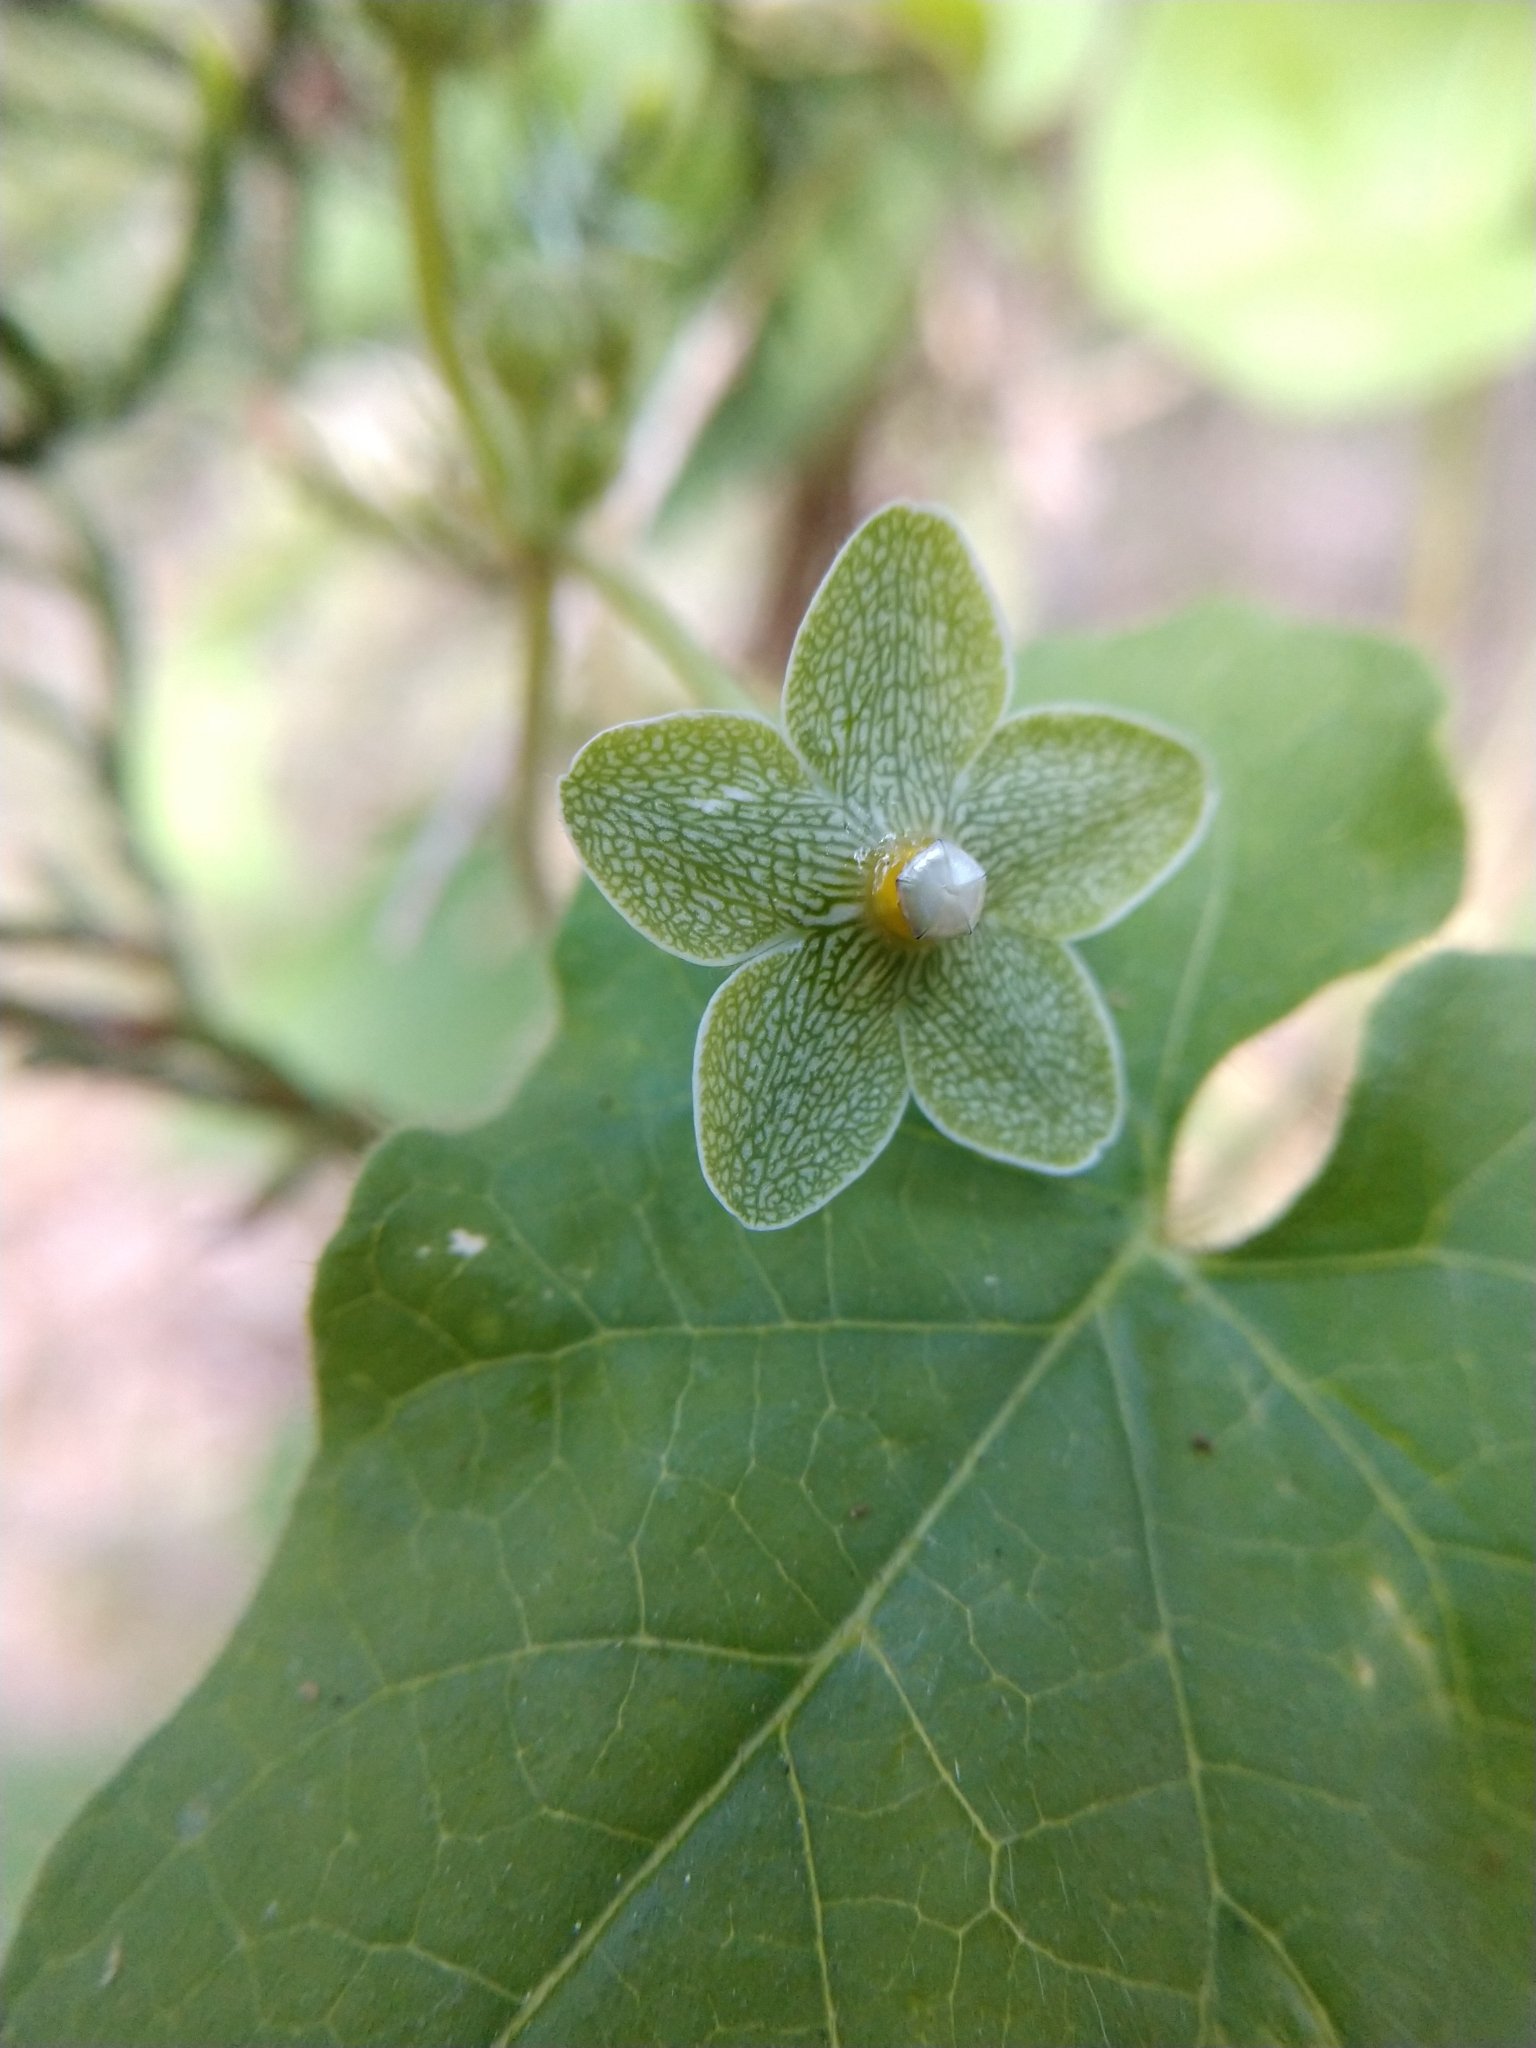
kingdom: Plantae
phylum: Tracheophyta
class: Magnoliopsida
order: Gentianales
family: Apocynaceae
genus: Dictyanthus
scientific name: Dictyanthus reticulatus
